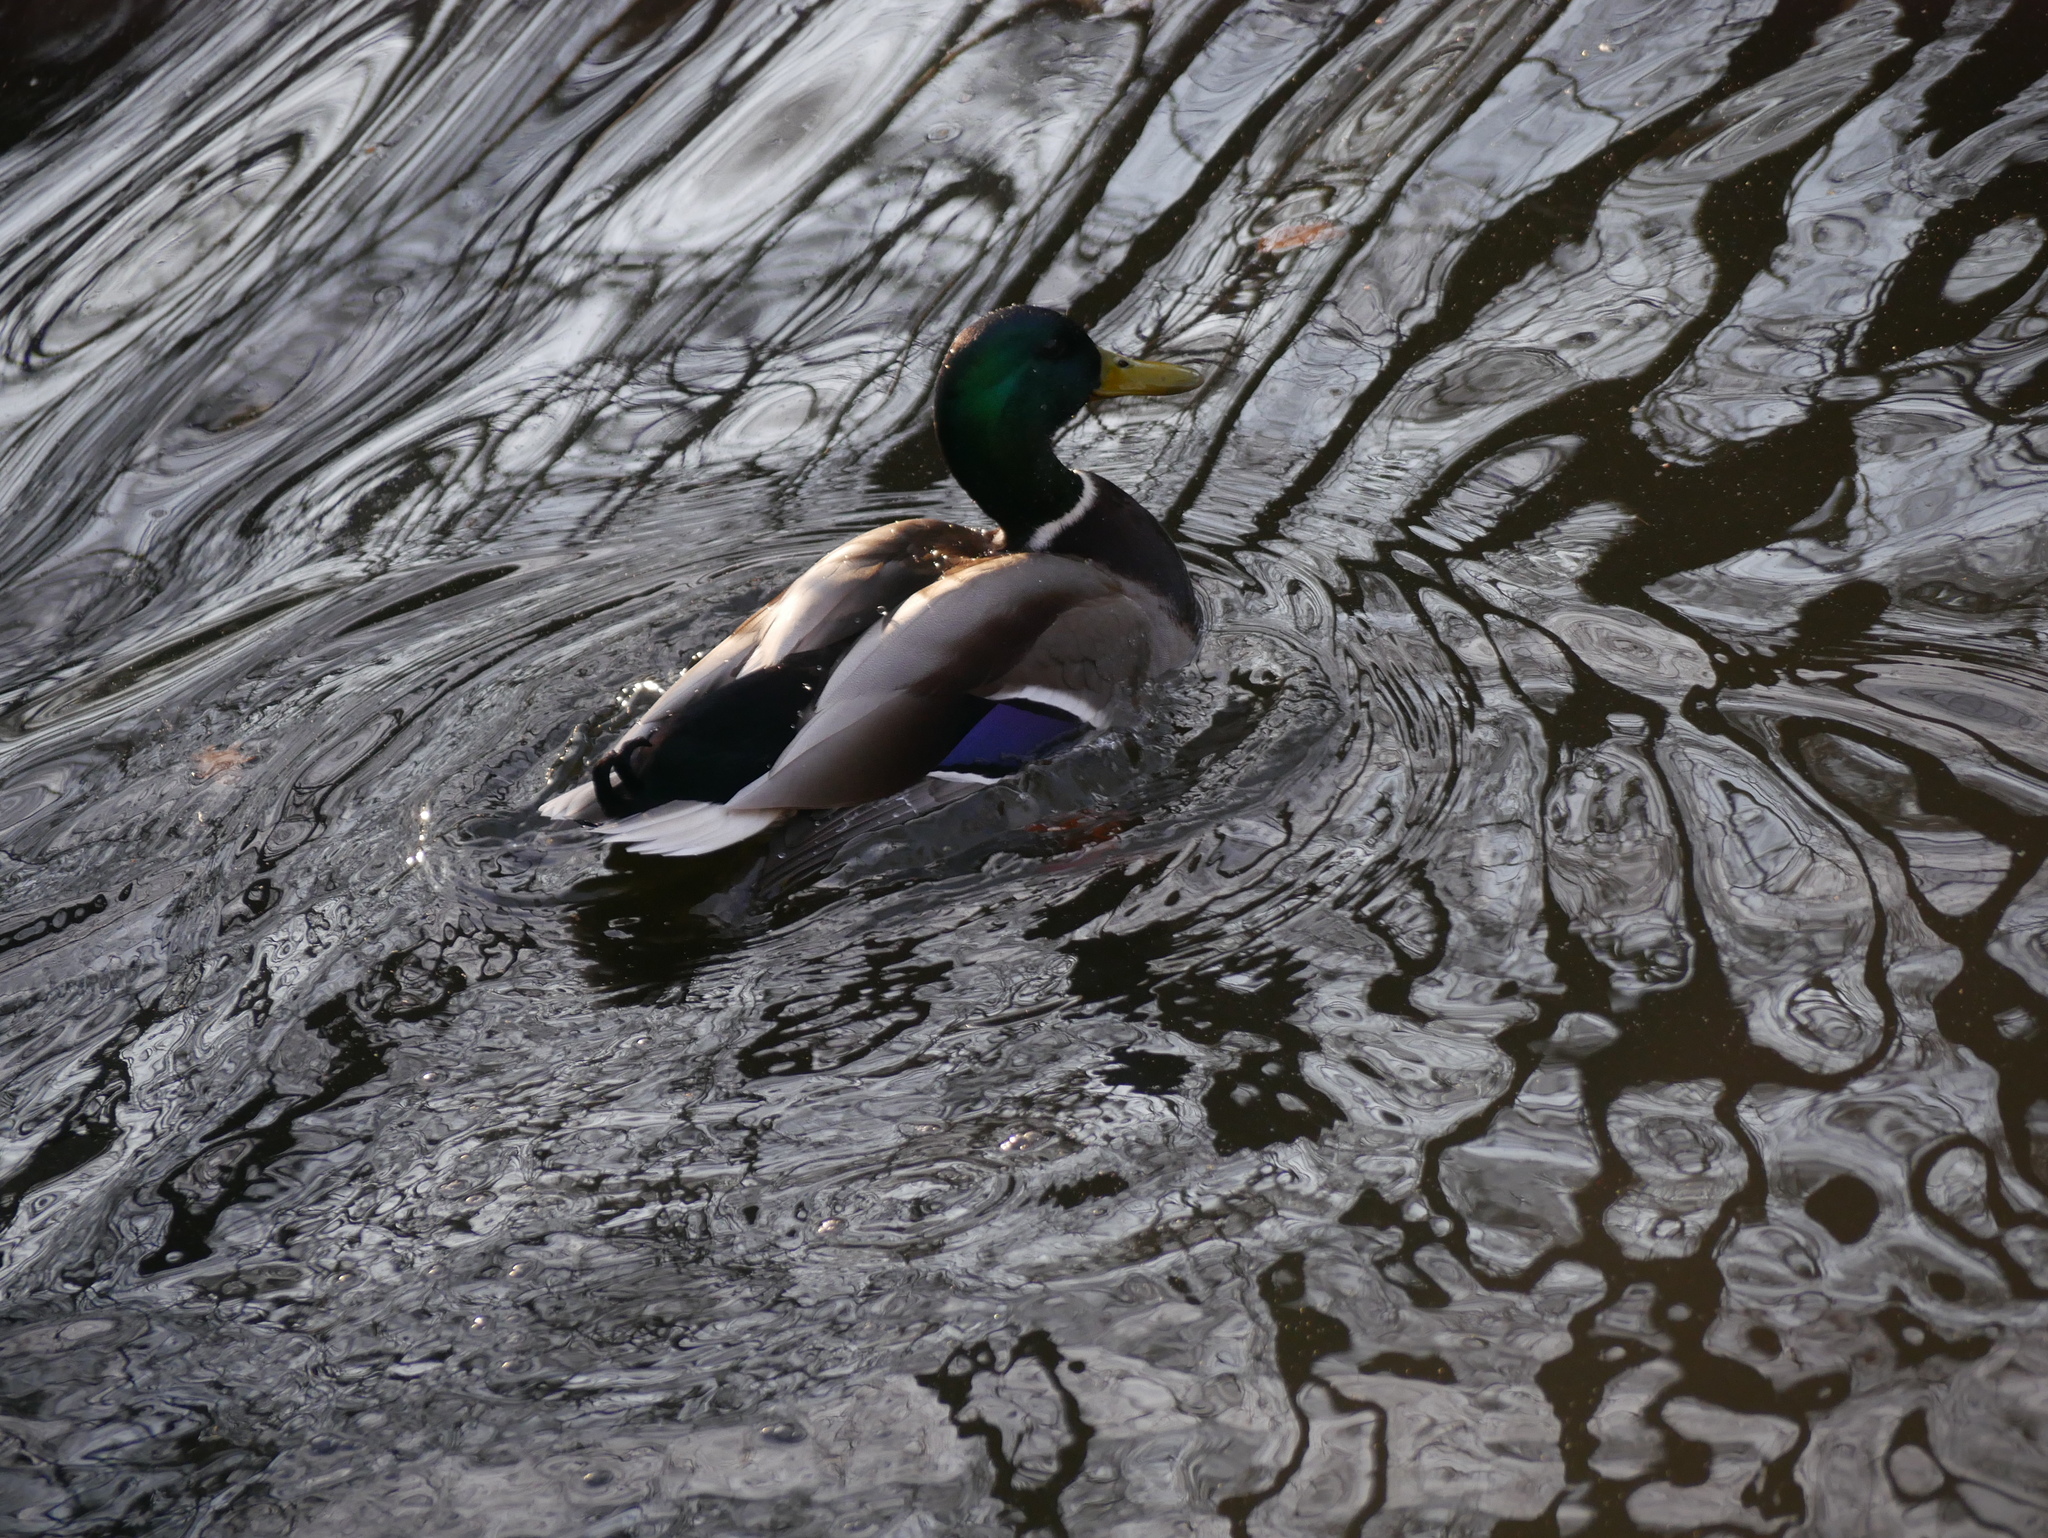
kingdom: Animalia
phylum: Chordata
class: Aves
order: Anseriformes
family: Anatidae
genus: Anas
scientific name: Anas platyrhynchos
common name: Mallard
